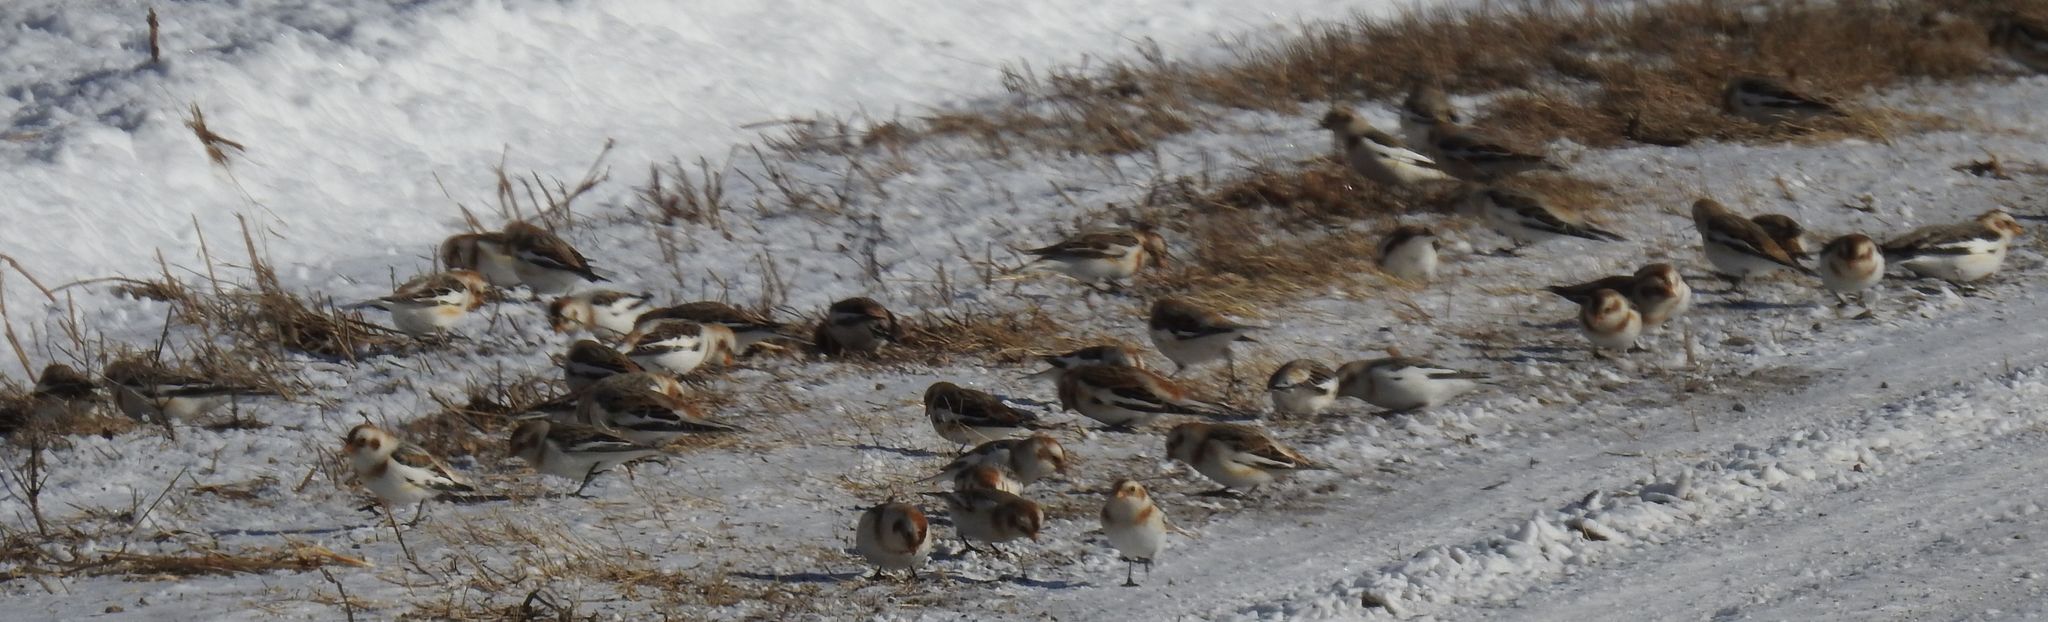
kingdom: Animalia
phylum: Chordata
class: Aves
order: Passeriformes
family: Calcariidae
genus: Plectrophenax
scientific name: Plectrophenax nivalis
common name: Snow bunting
